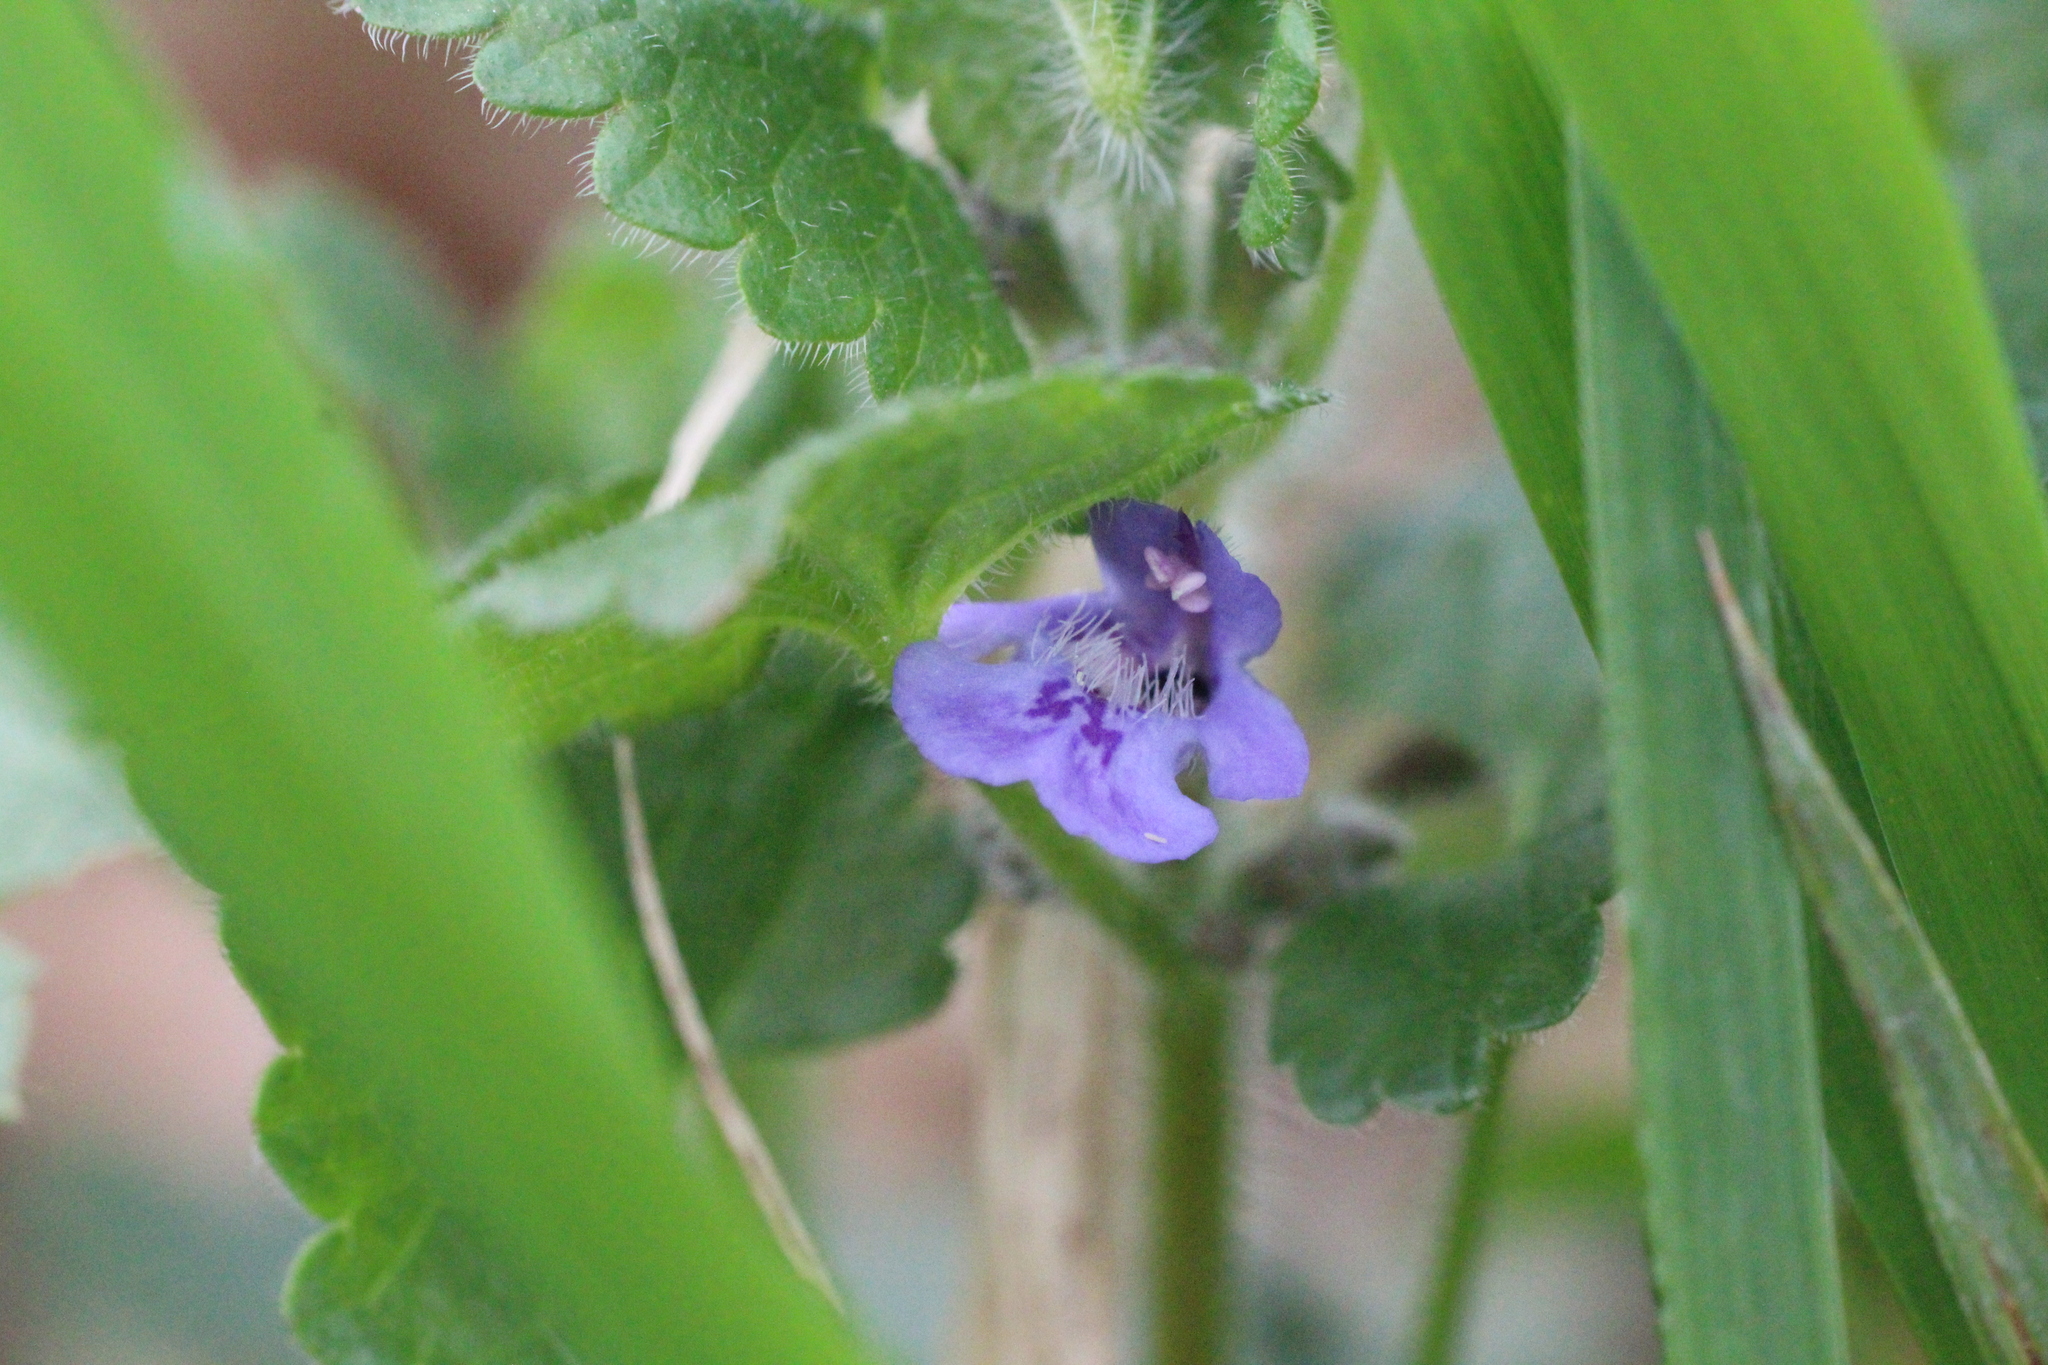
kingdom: Plantae
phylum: Tracheophyta
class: Magnoliopsida
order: Lamiales
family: Lamiaceae
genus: Glechoma
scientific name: Glechoma hirsuta
